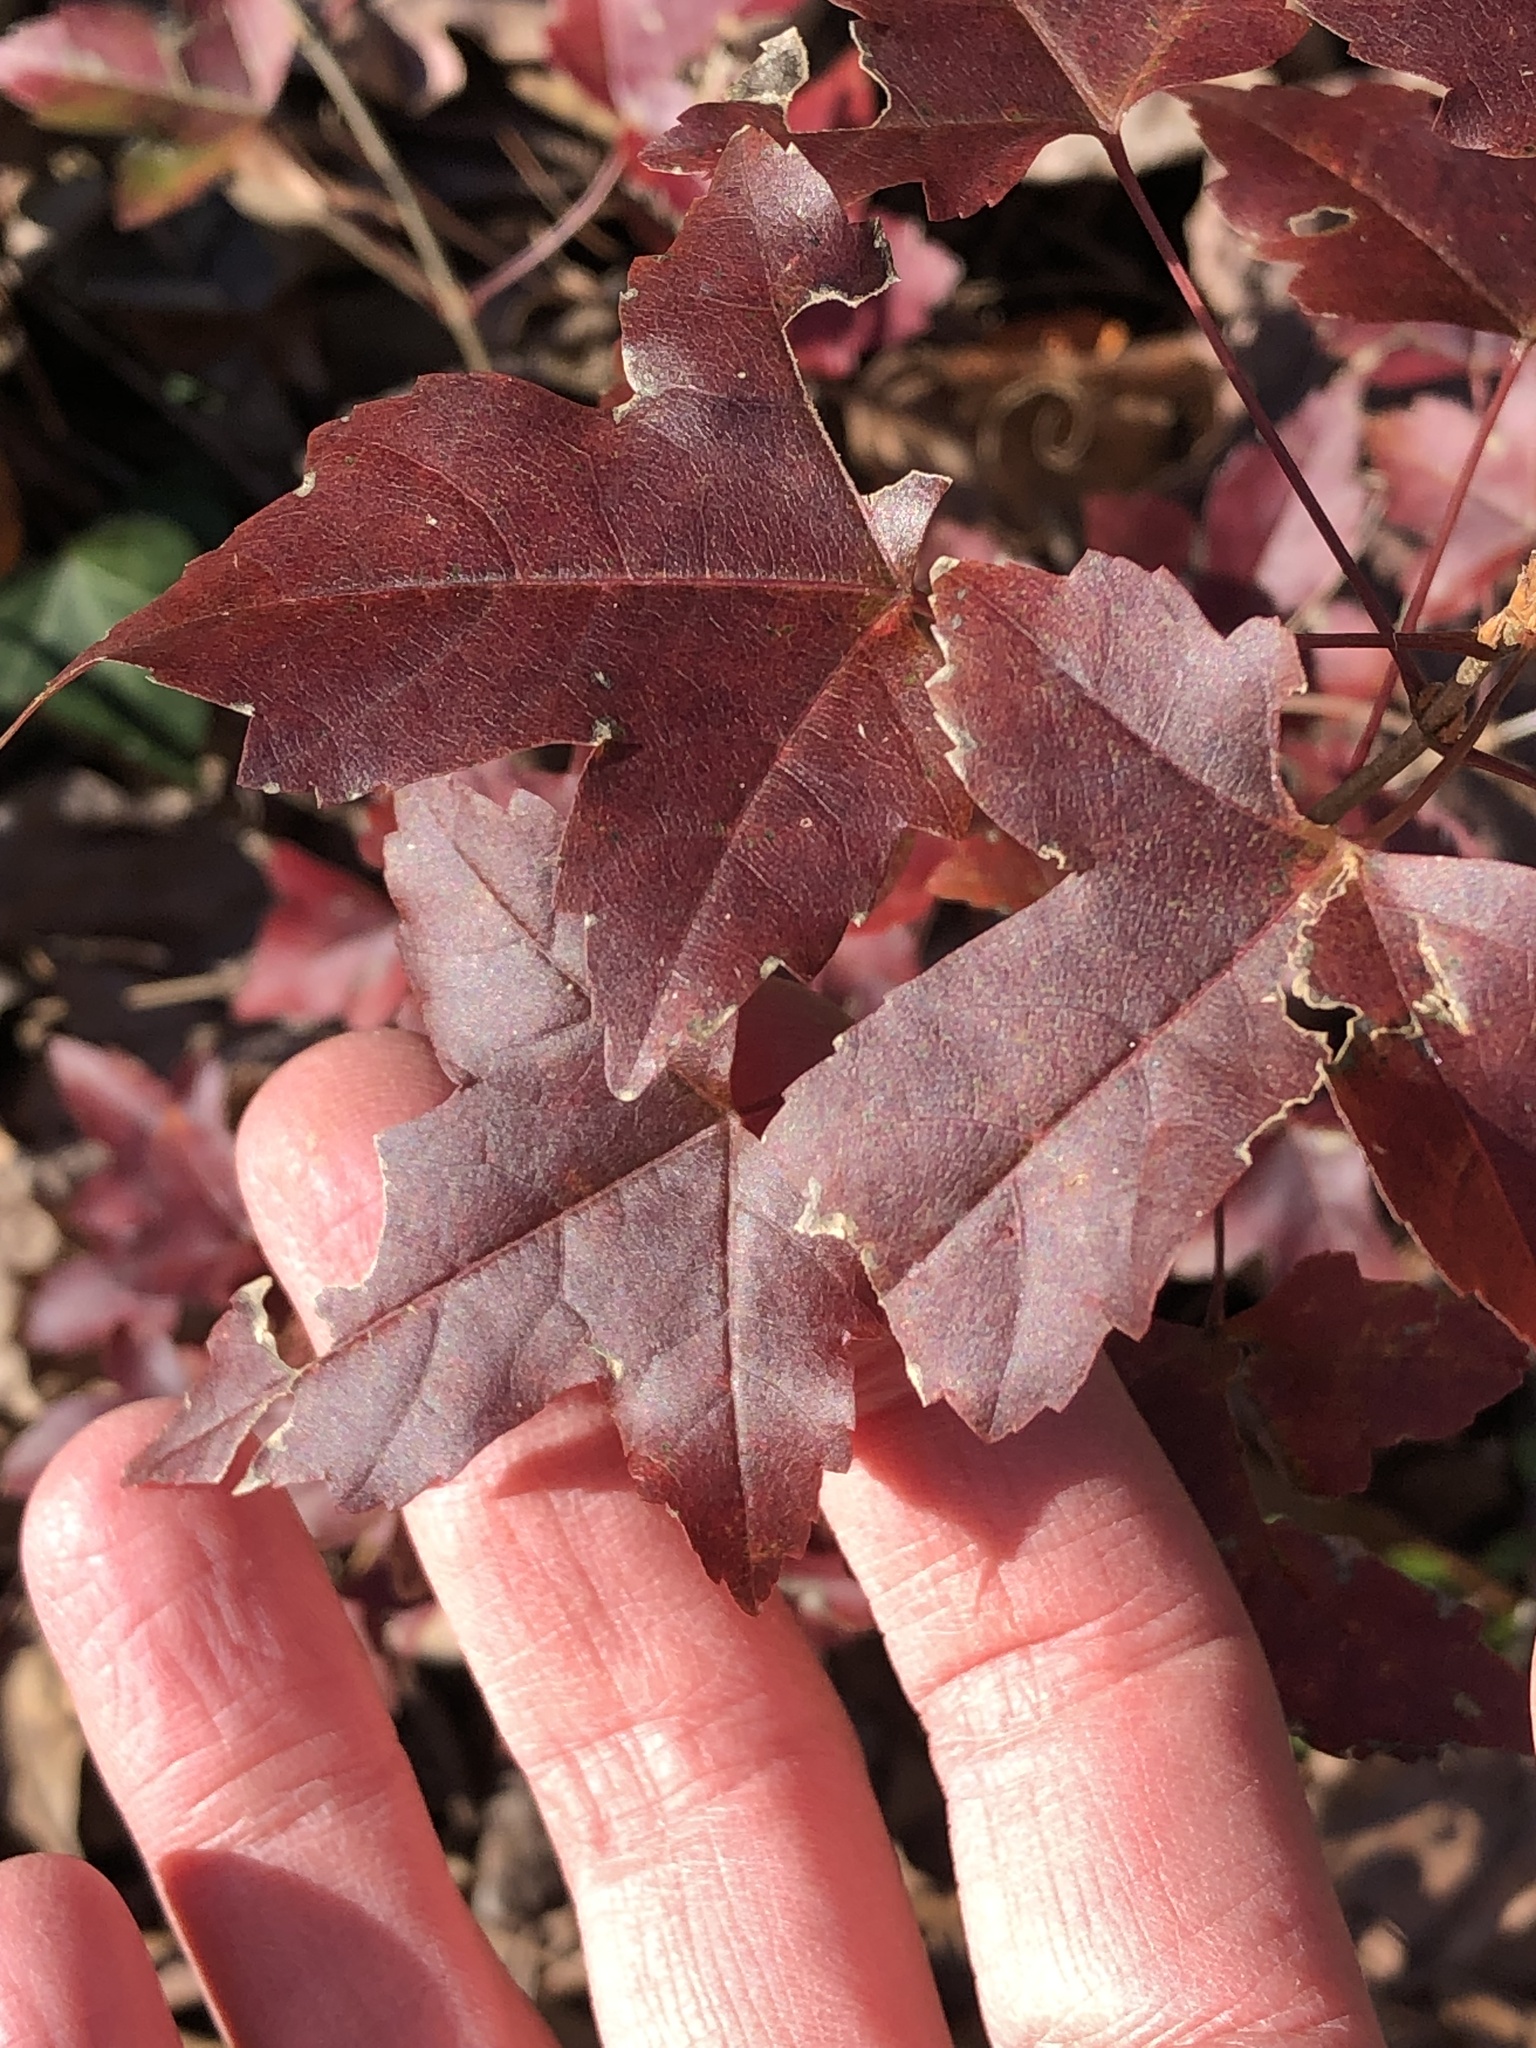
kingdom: Plantae
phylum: Tracheophyta
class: Magnoliopsida
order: Saxifragales
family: Altingiaceae
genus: Liquidambar
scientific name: Liquidambar styraciflua
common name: Sweet gum
